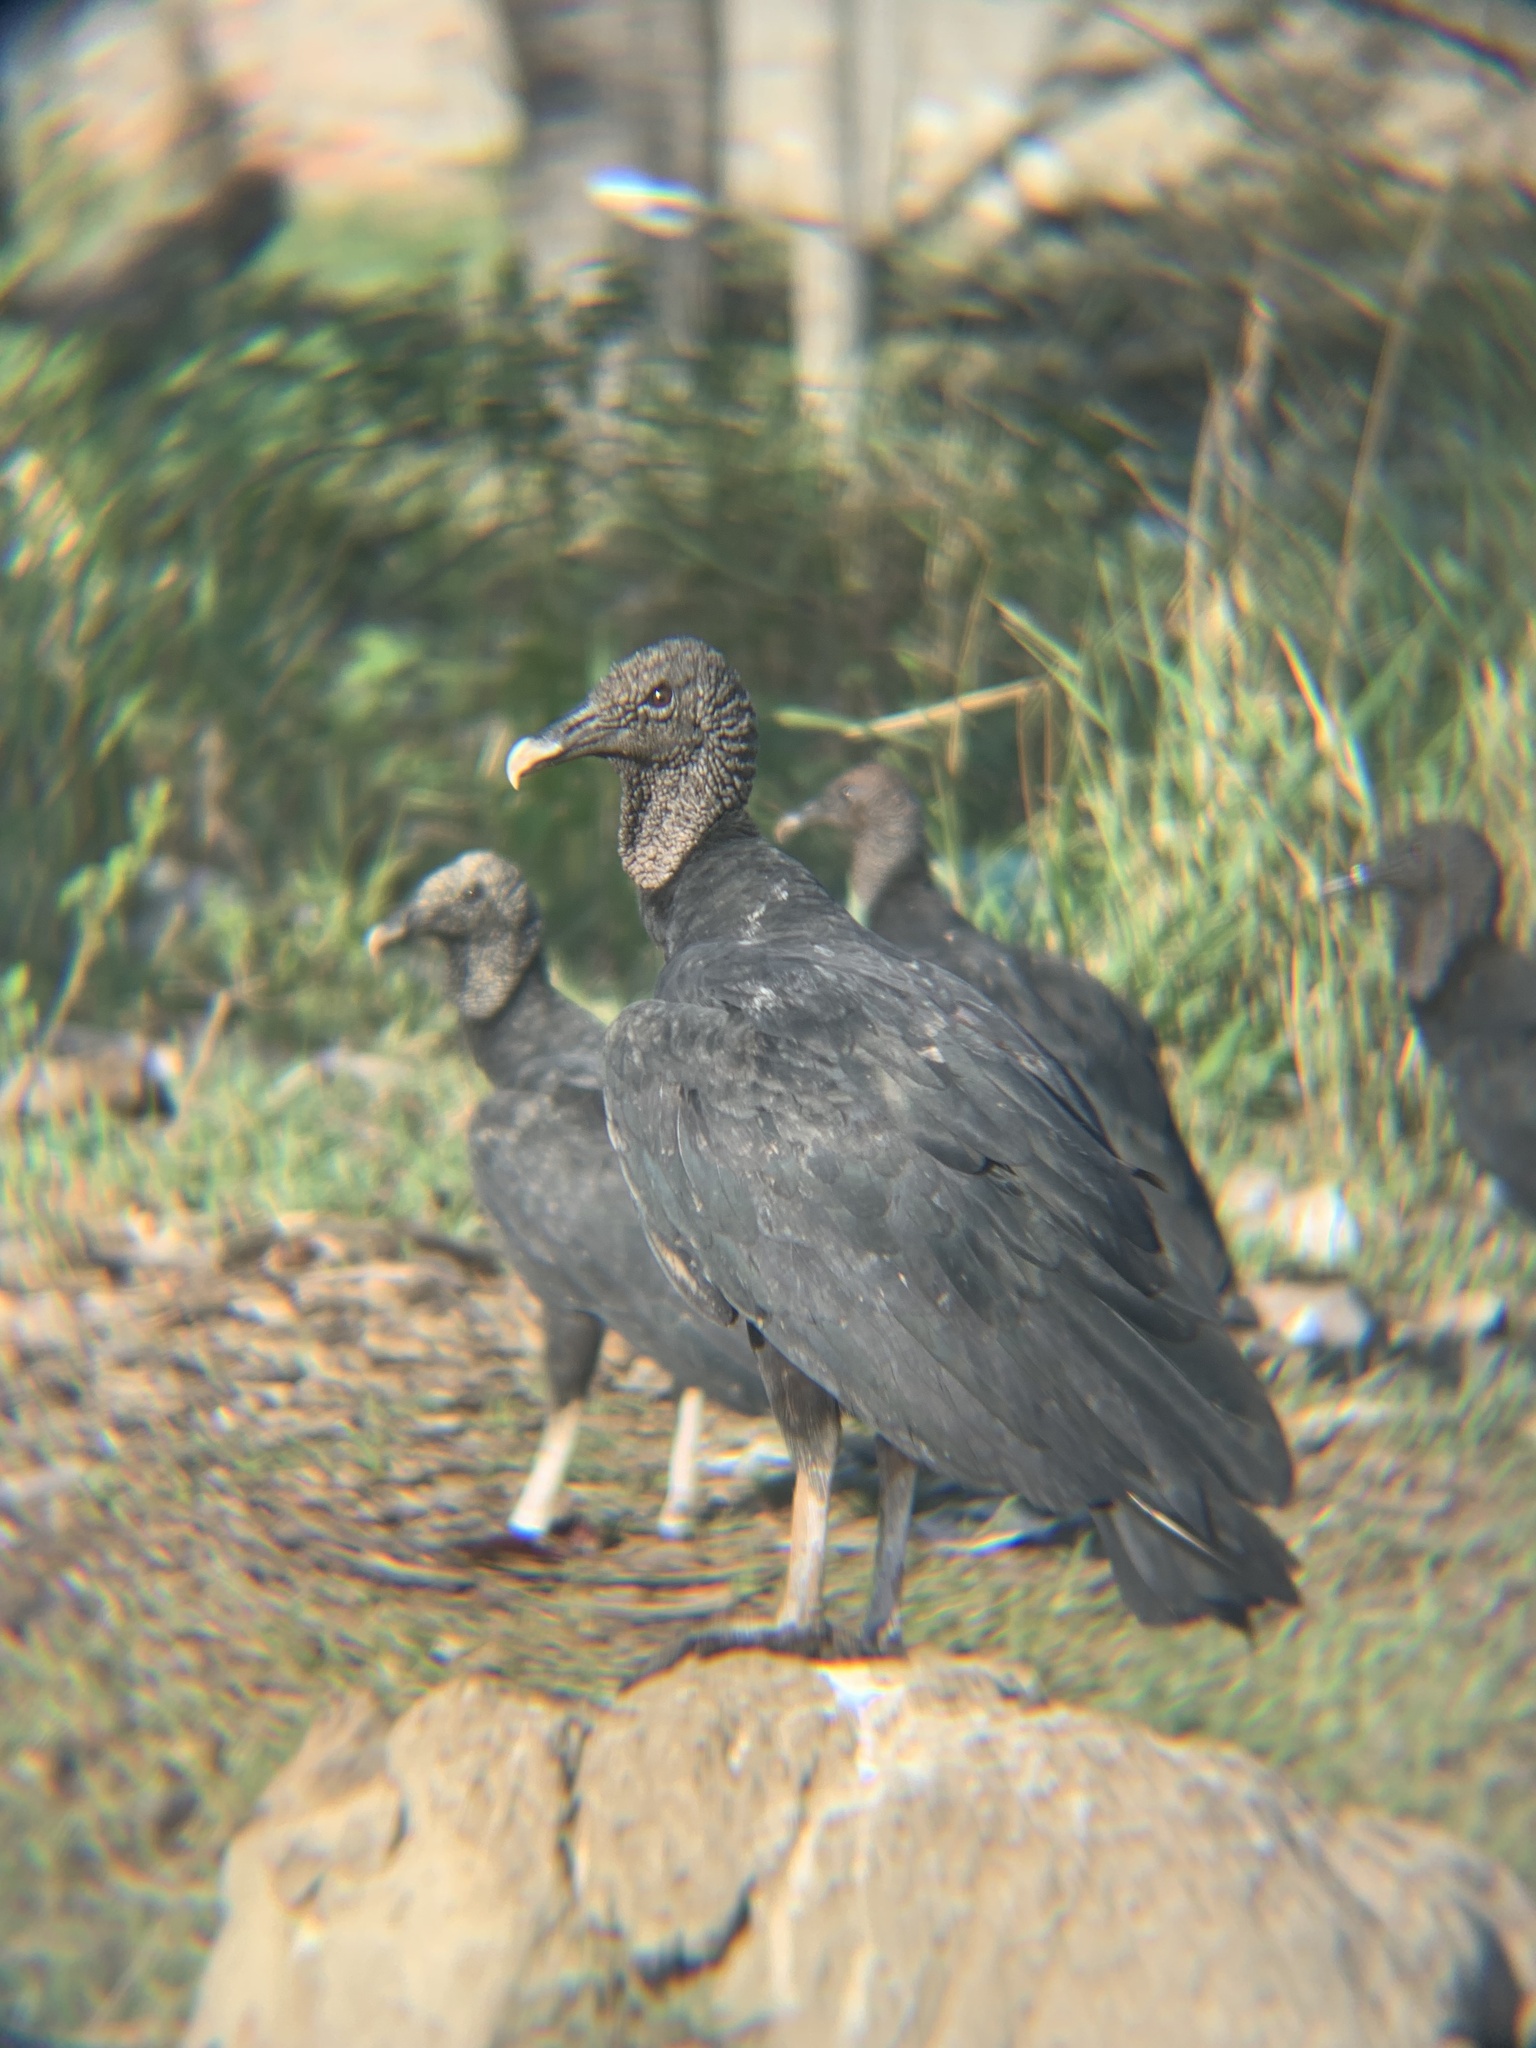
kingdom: Animalia
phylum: Chordata
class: Aves
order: Accipitriformes
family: Cathartidae
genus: Coragyps
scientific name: Coragyps atratus
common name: Black vulture
